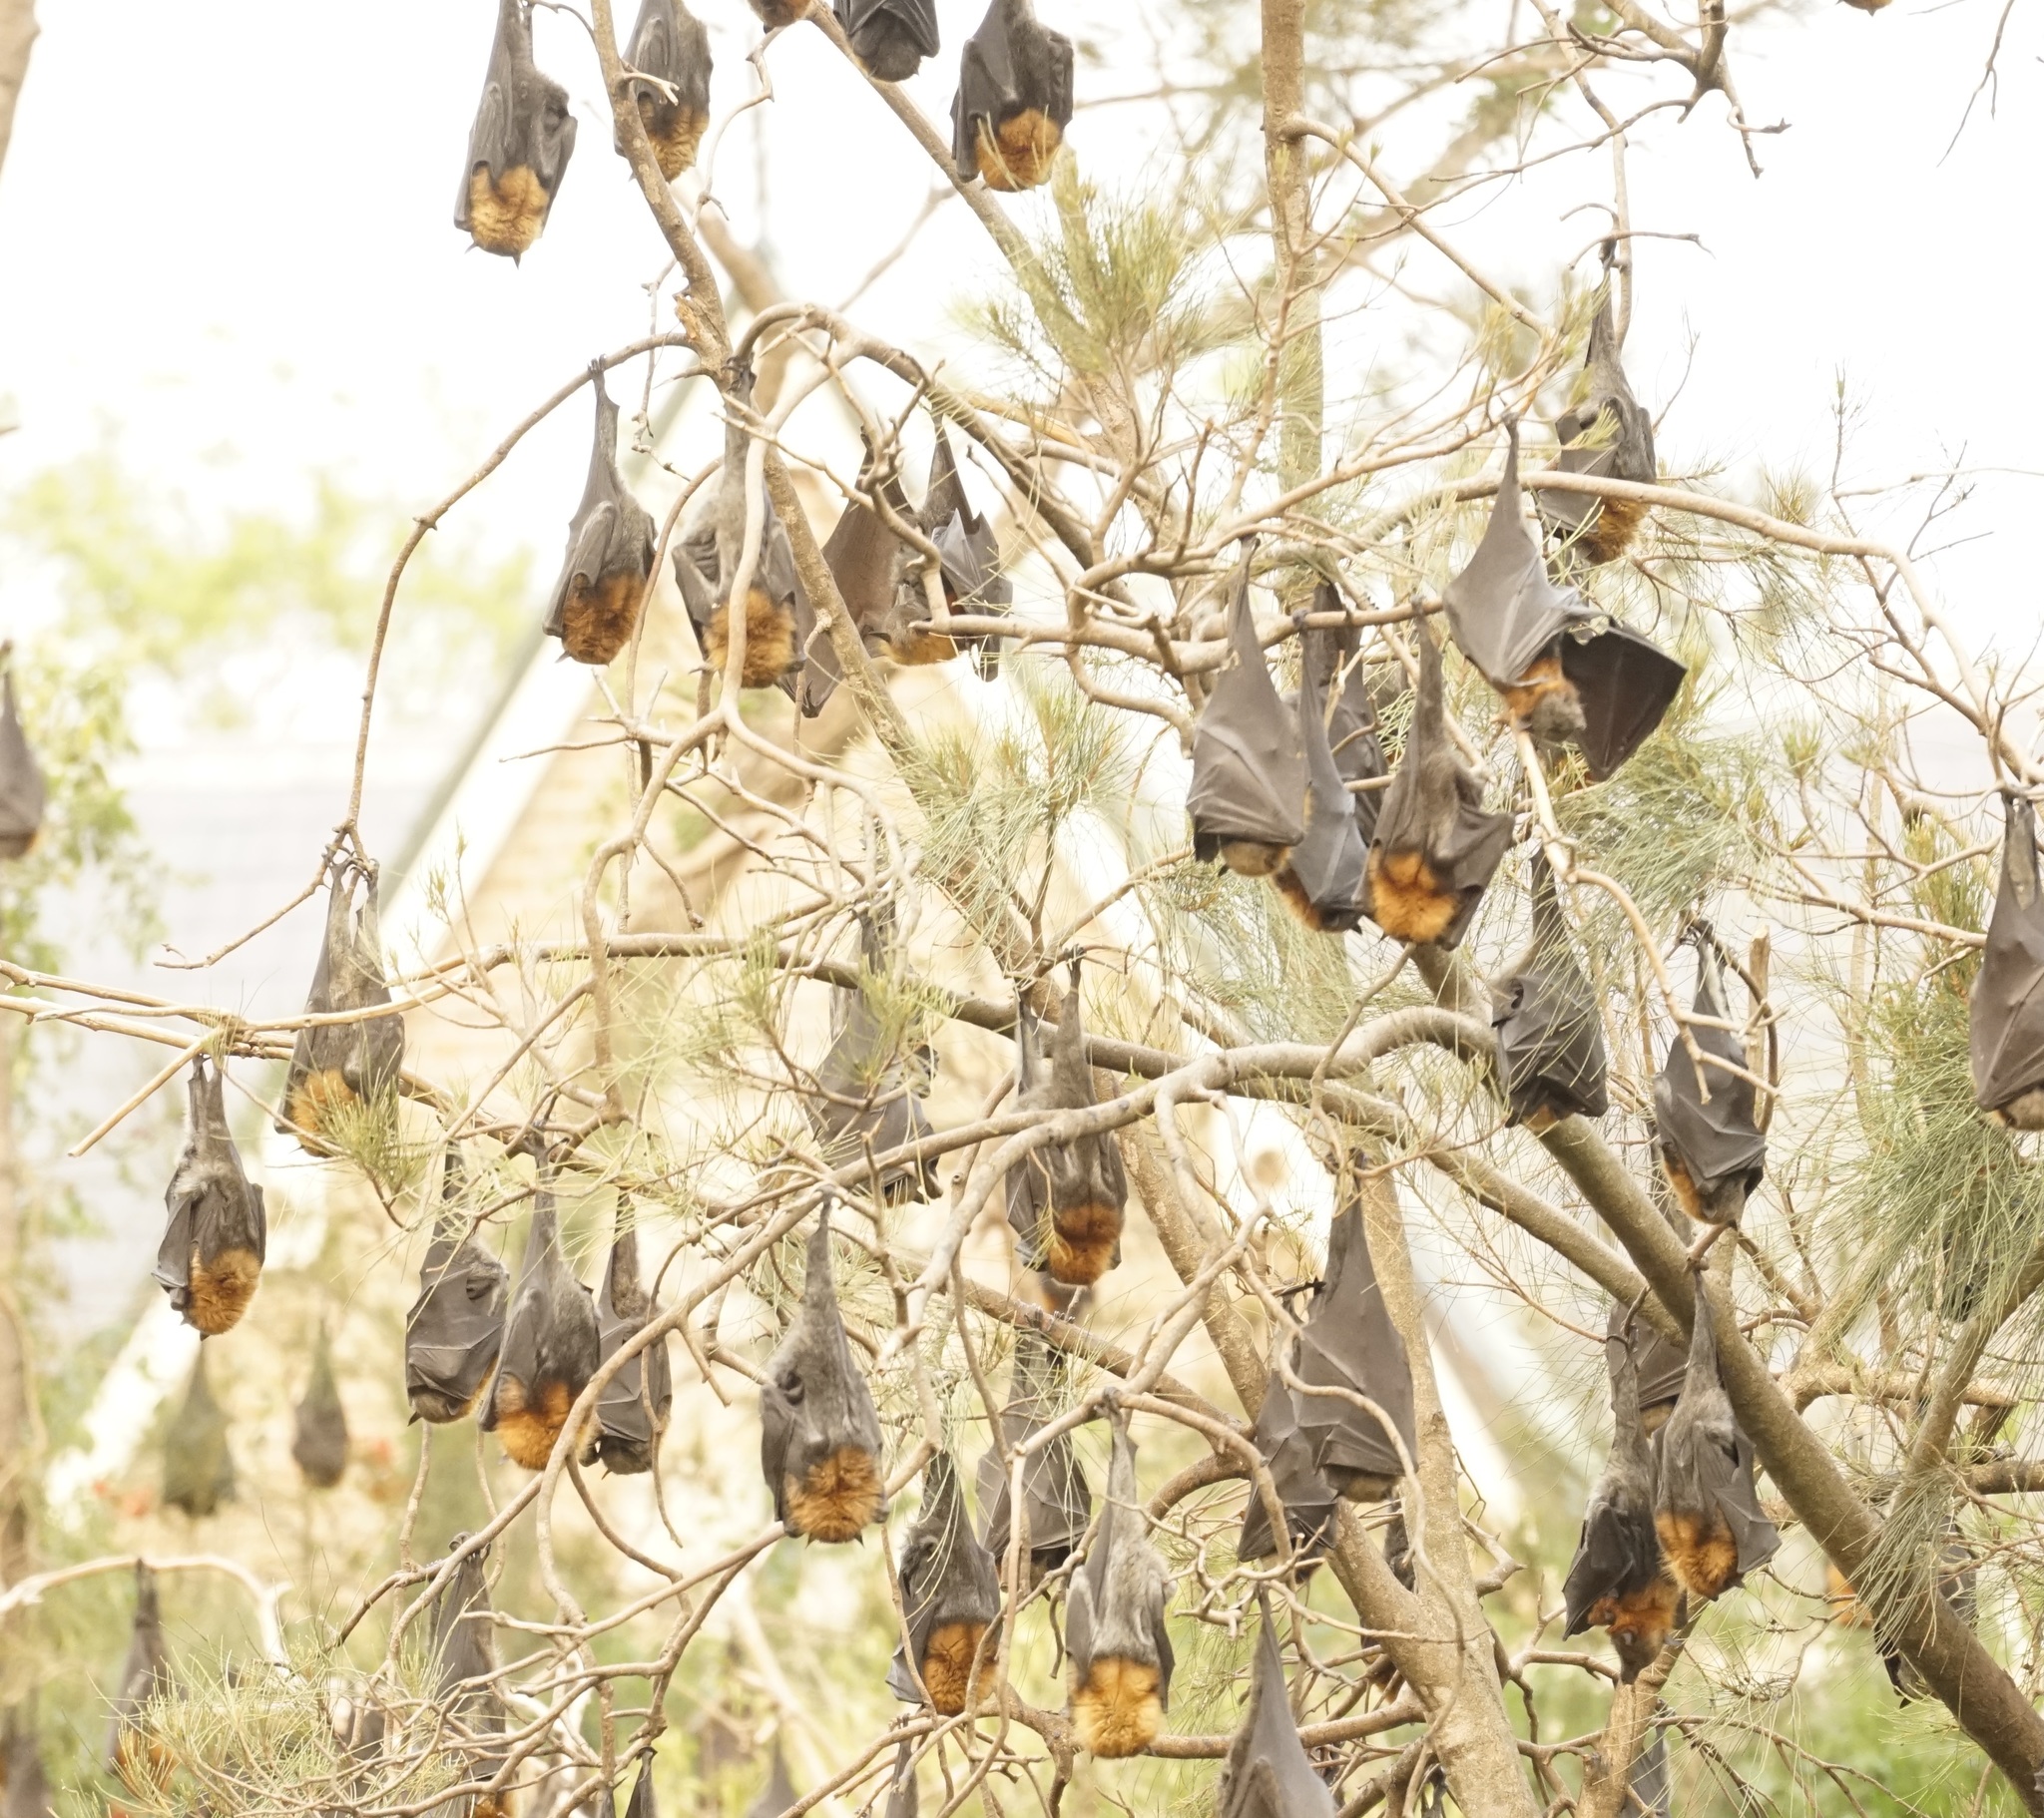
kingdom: Animalia
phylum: Chordata
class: Mammalia
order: Chiroptera
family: Pteropodidae
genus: Pteropus
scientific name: Pteropus poliocephalus
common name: Gray-headed flying fox
